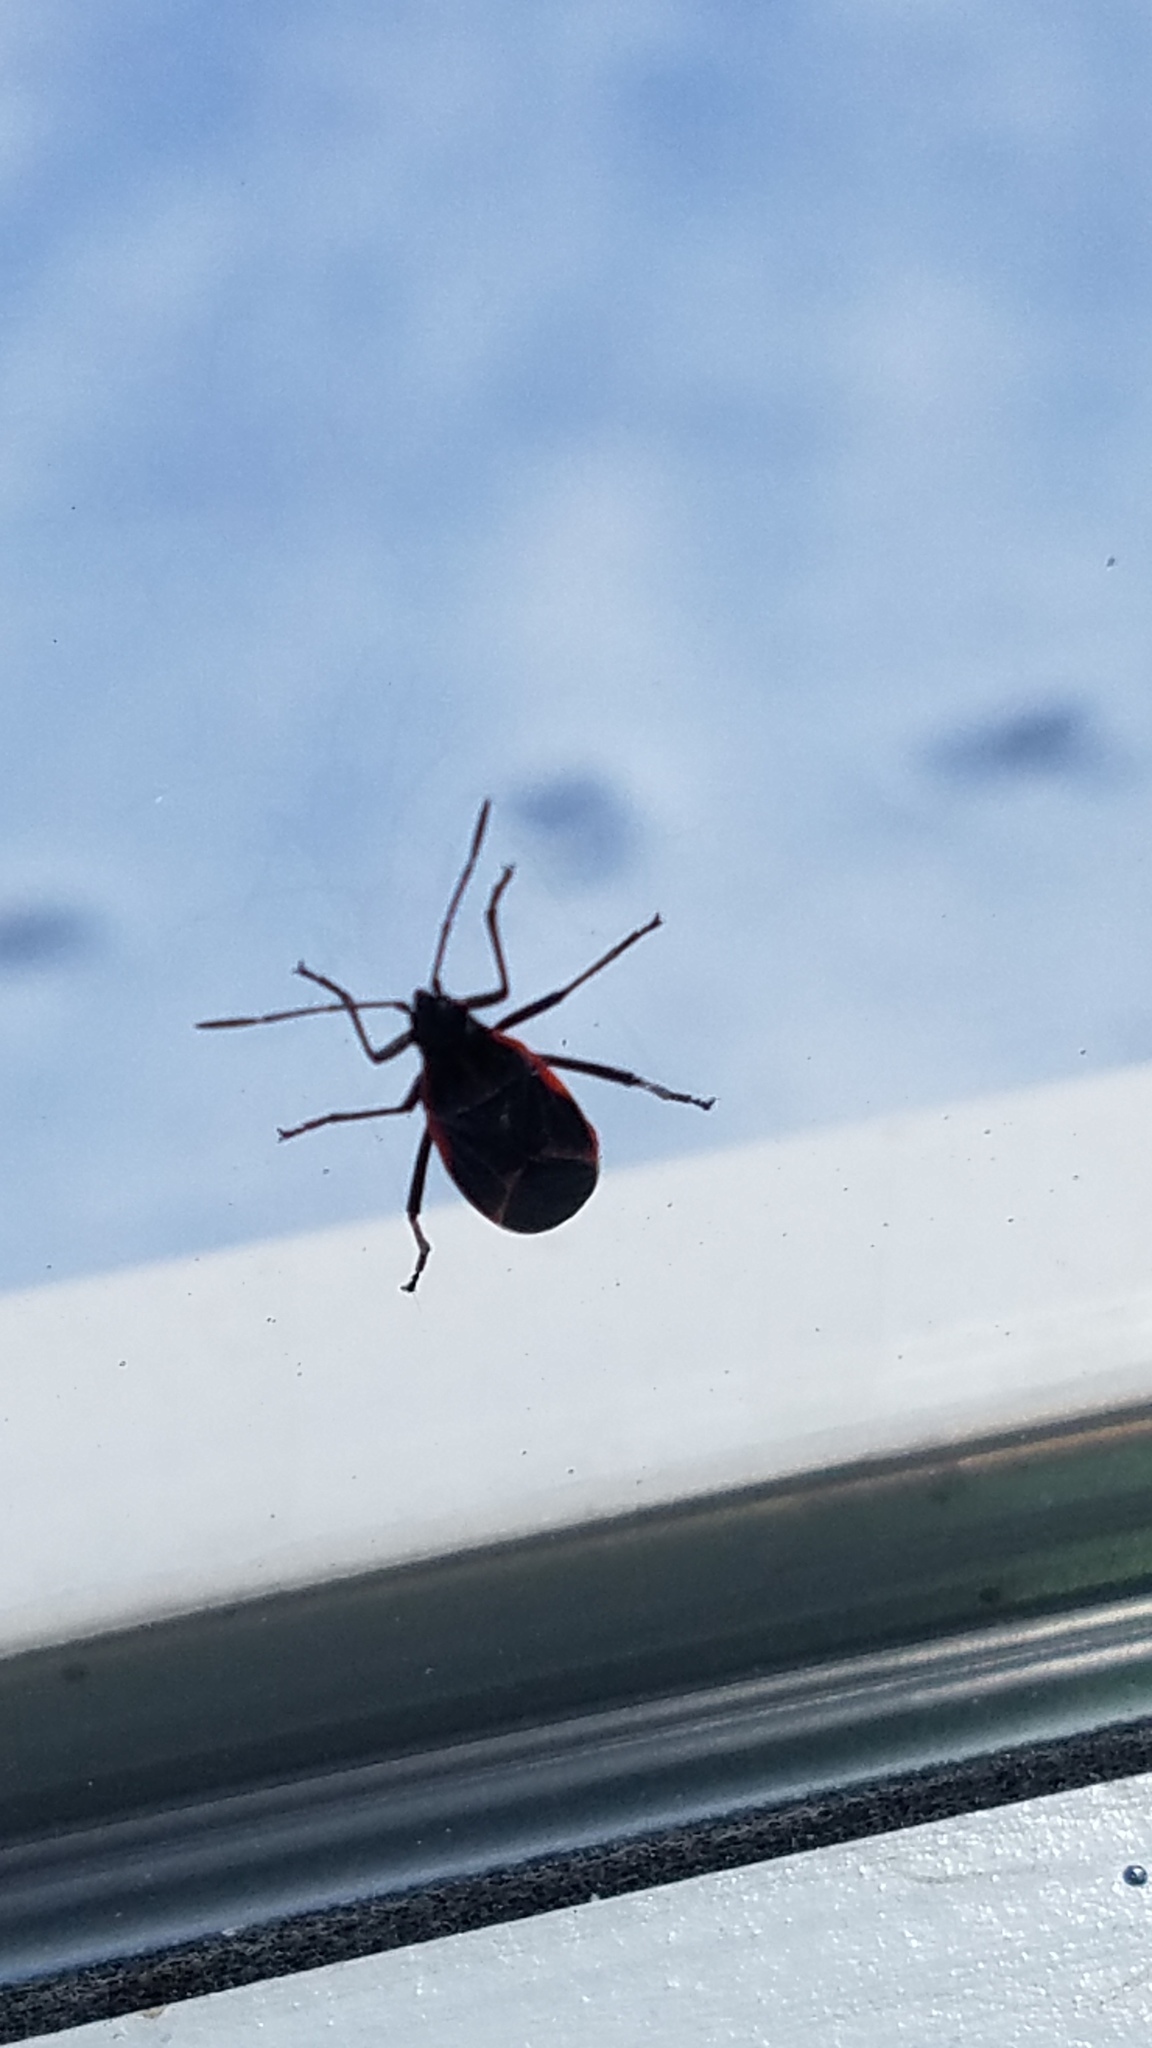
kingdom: Animalia
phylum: Arthropoda
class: Insecta
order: Hemiptera
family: Rhopalidae
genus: Boisea
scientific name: Boisea trivittata
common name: Boxelder bug
